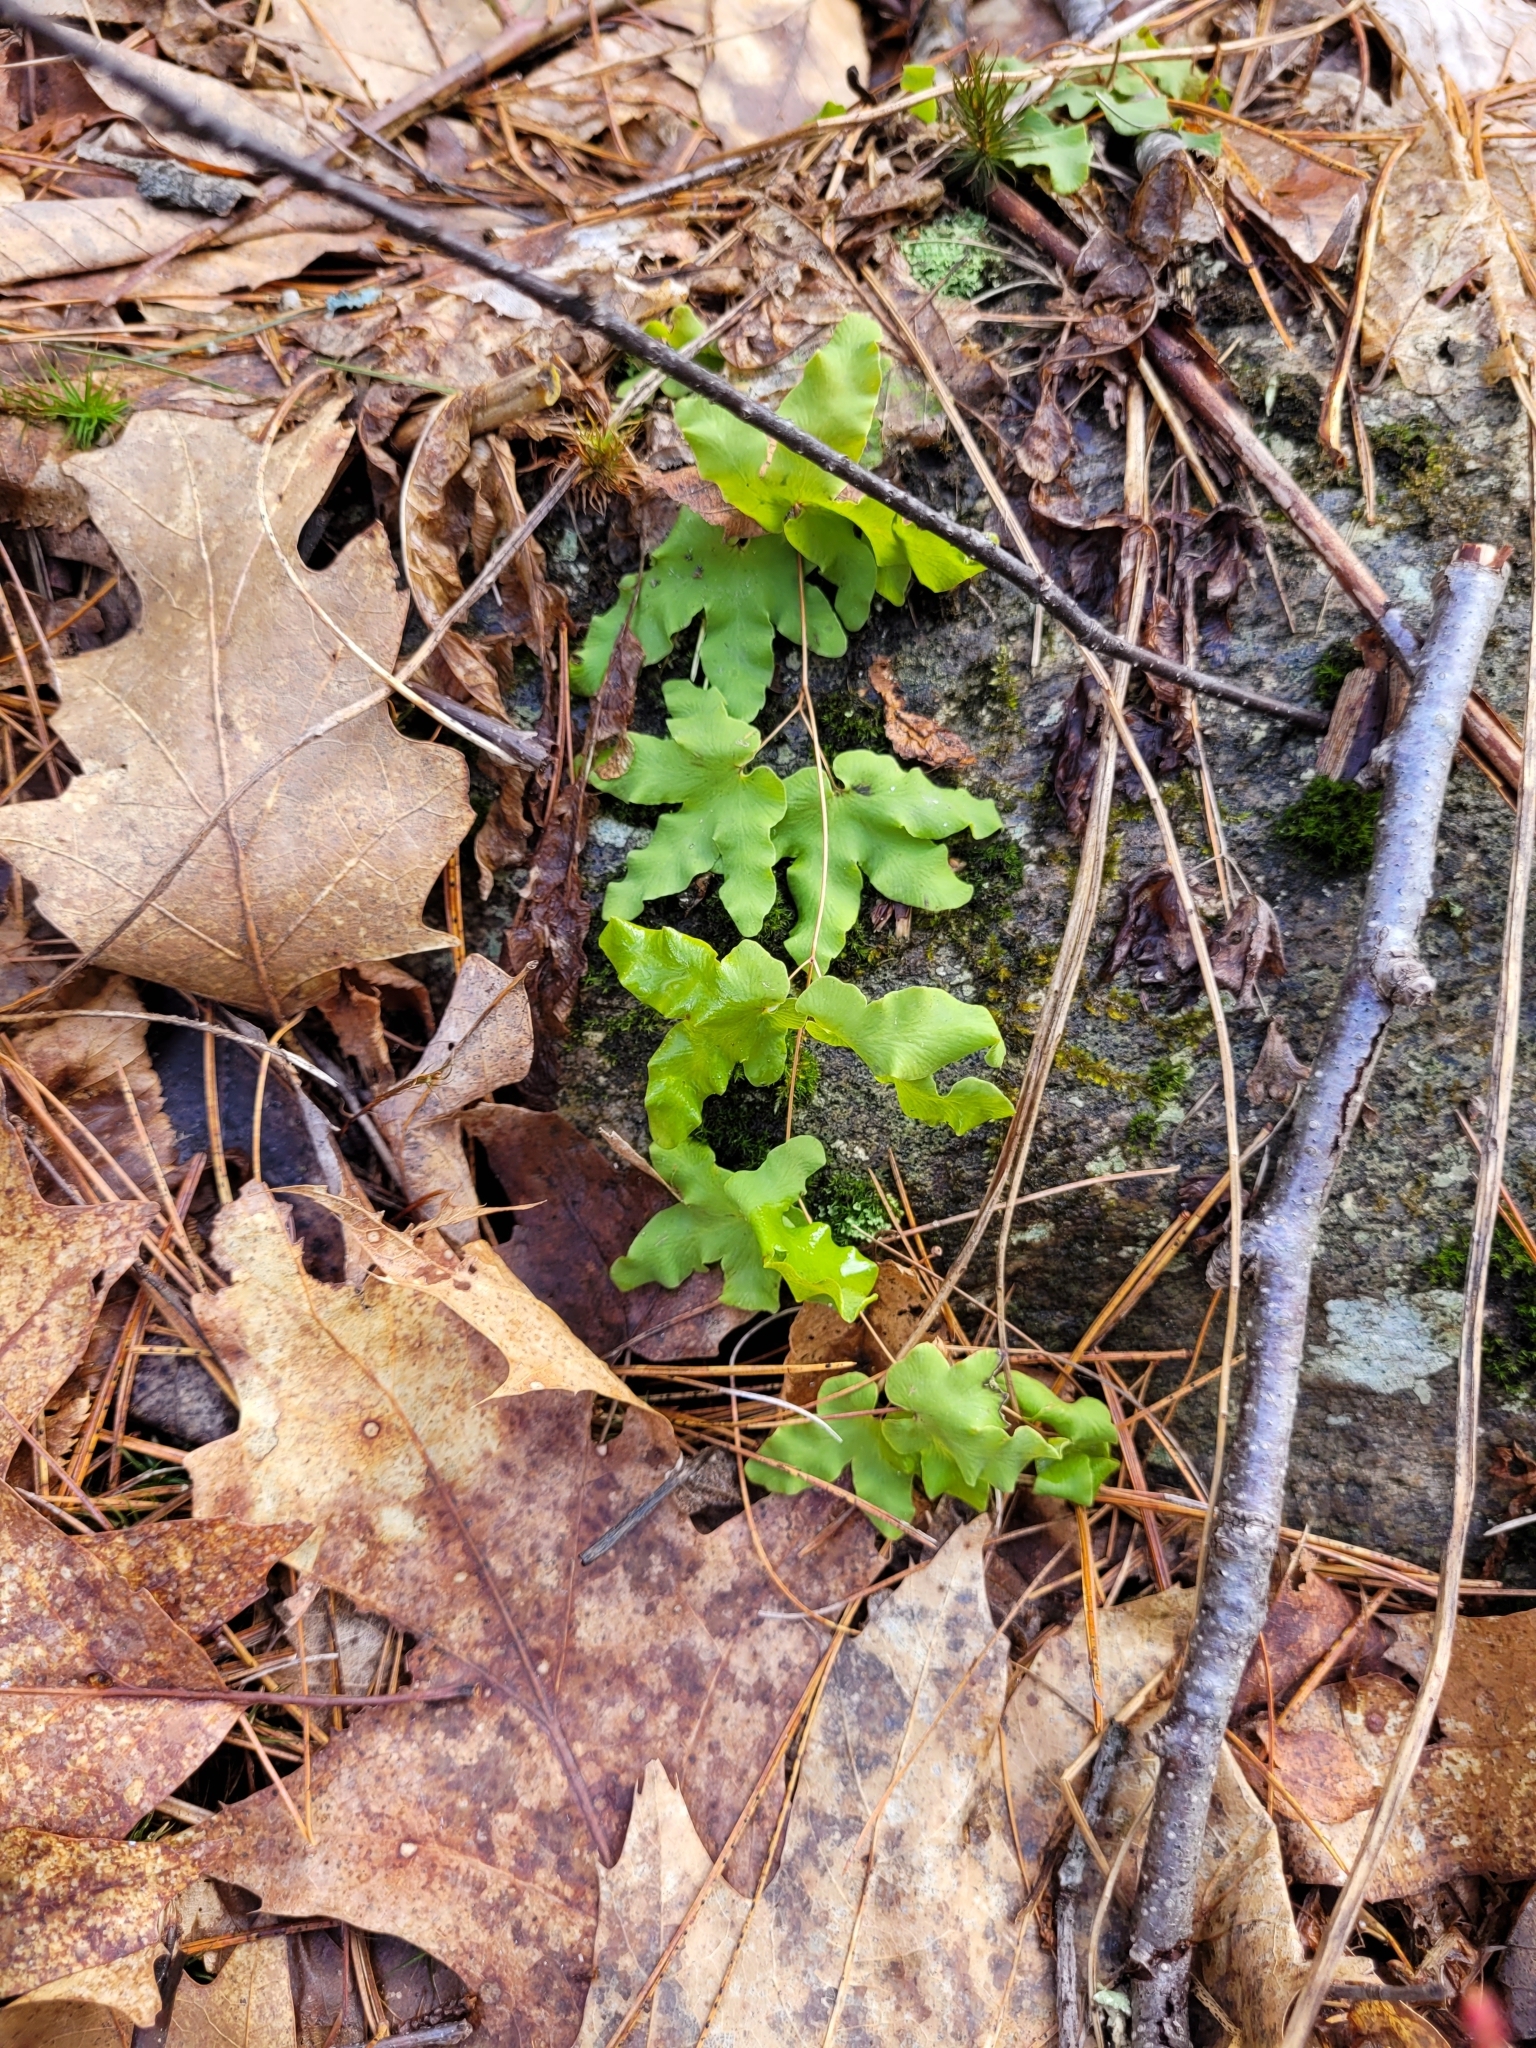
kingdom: Plantae
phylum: Tracheophyta
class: Polypodiopsida
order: Schizaeales
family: Lygodiaceae
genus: Lygodium
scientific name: Lygodium palmatum
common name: American climbing fern
